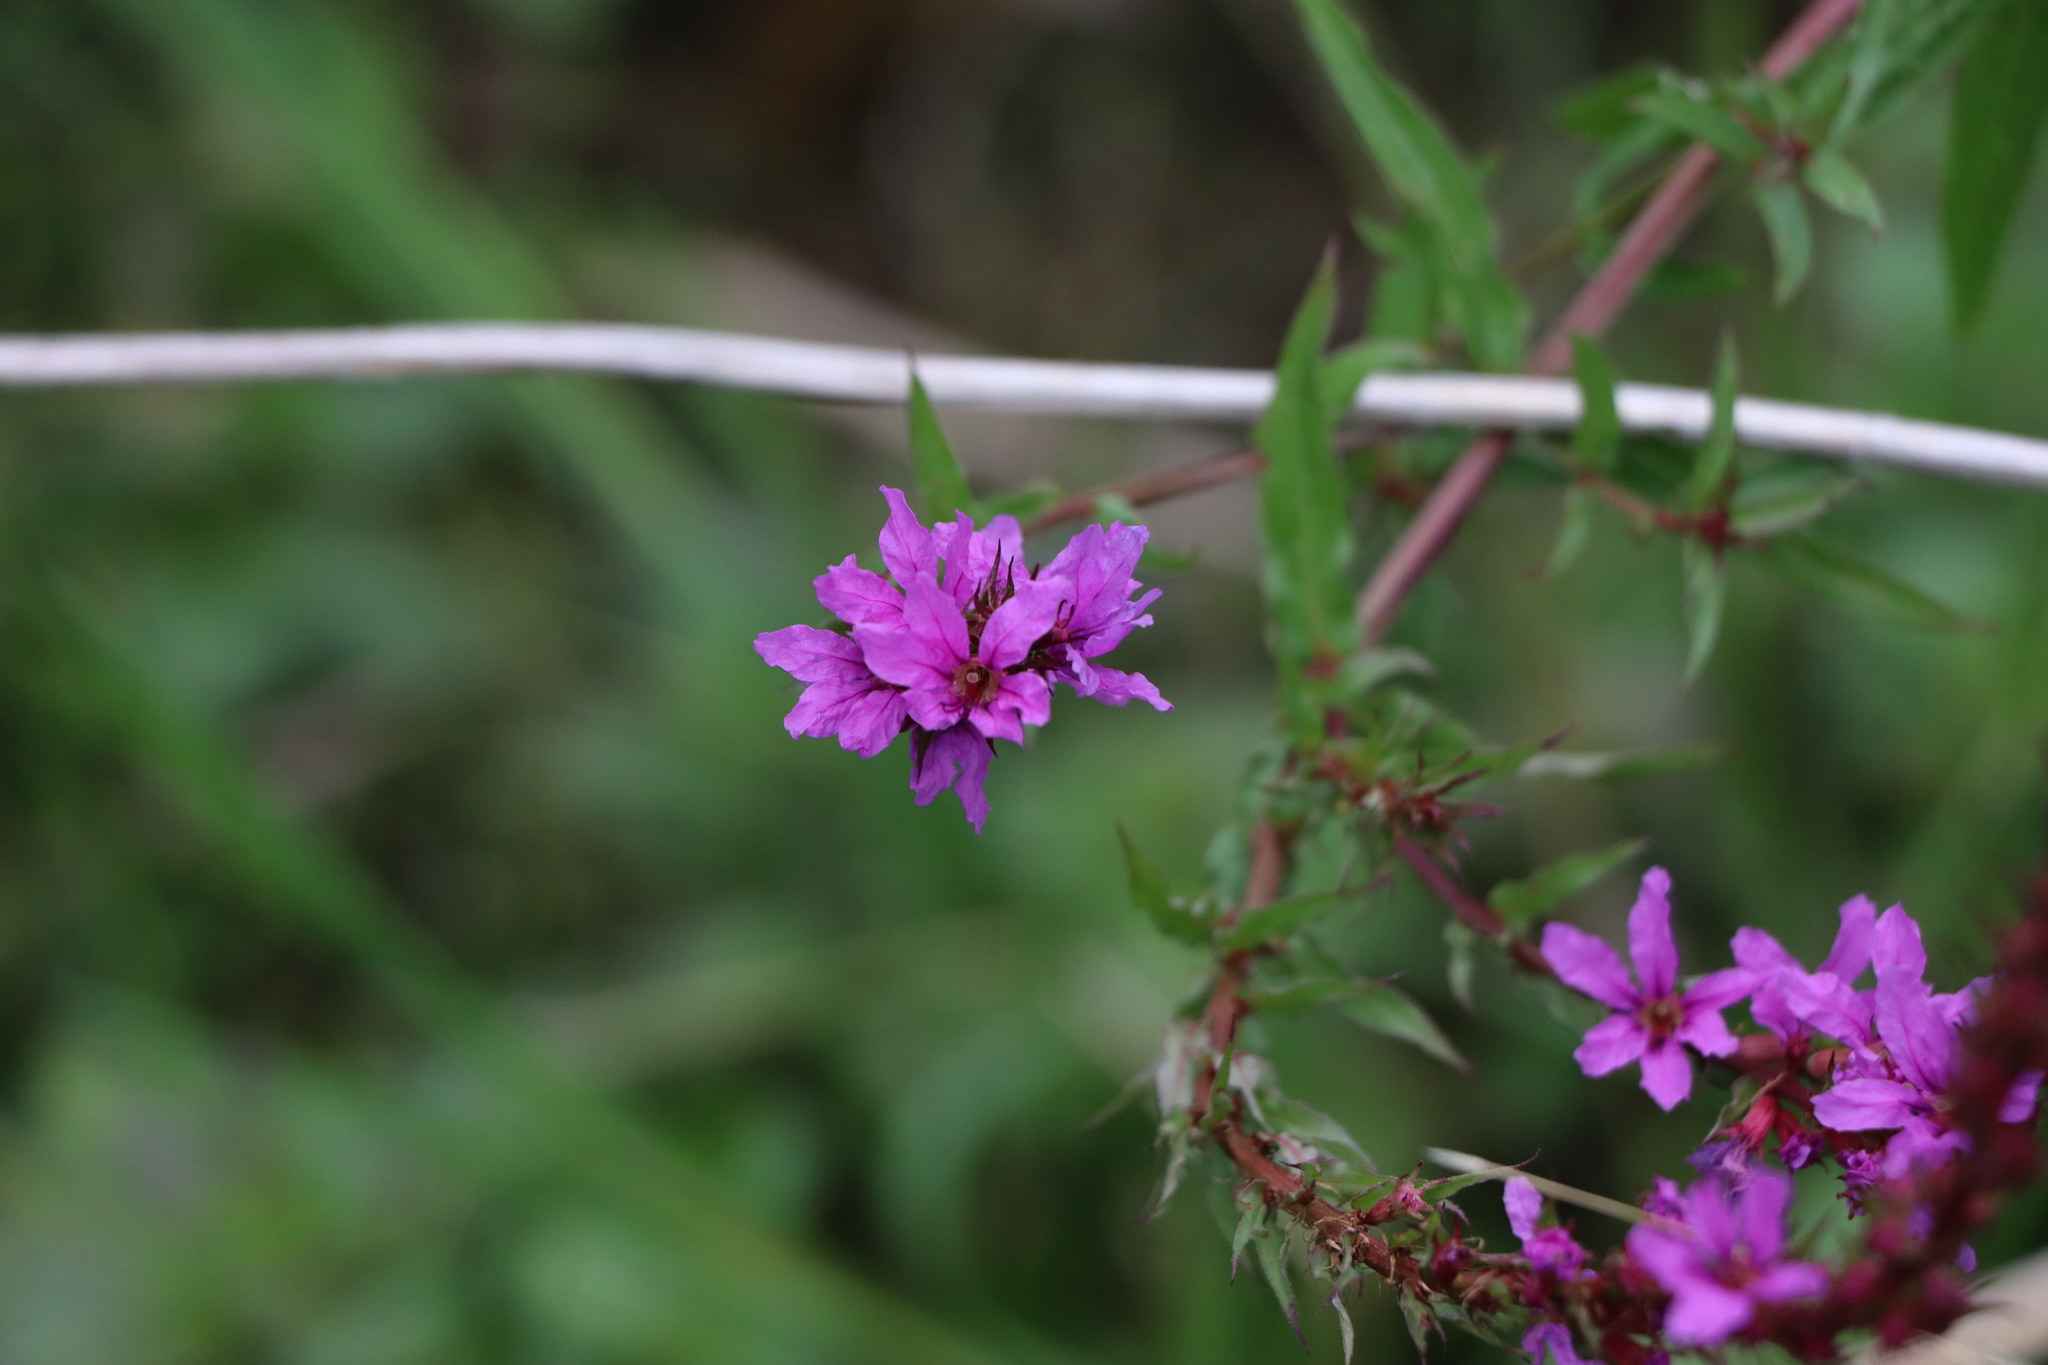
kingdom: Plantae
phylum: Tracheophyta
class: Magnoliopsida
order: Myrtales
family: Lythraceae
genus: Lythrum
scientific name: Lythrum salicaria
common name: Purple loosestrife
